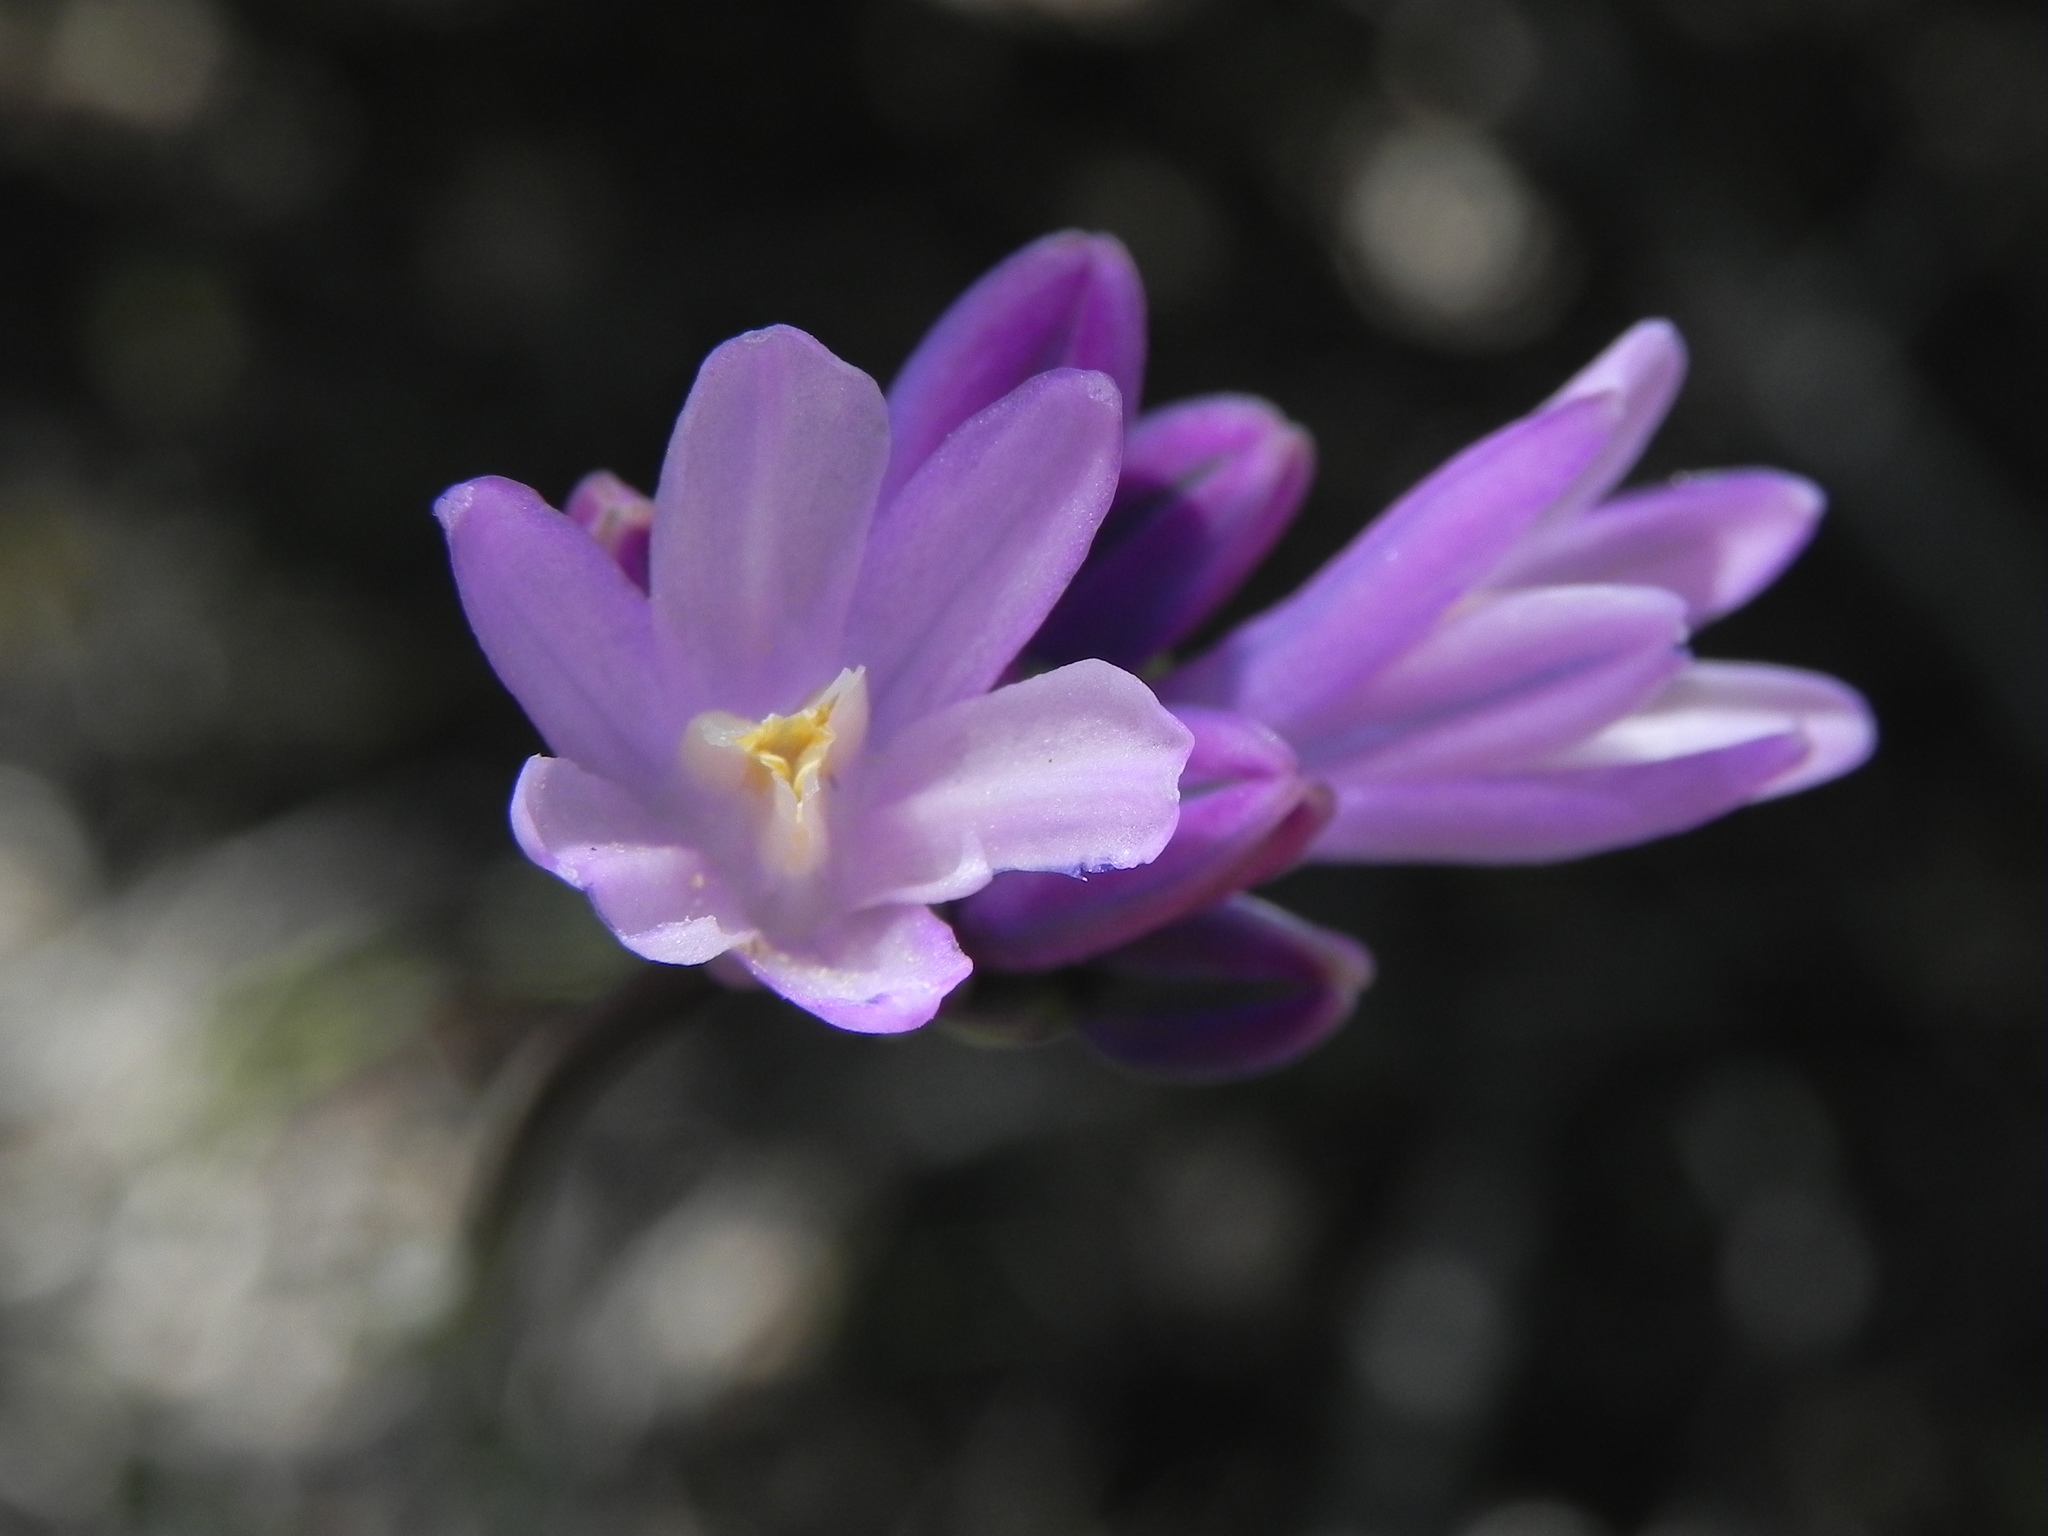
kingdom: Plantae
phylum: Tracheophyta
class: Liliopsida
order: Asparagales
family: Asparagaceae
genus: Dipterostemon
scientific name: Dipterostemon capitatus
